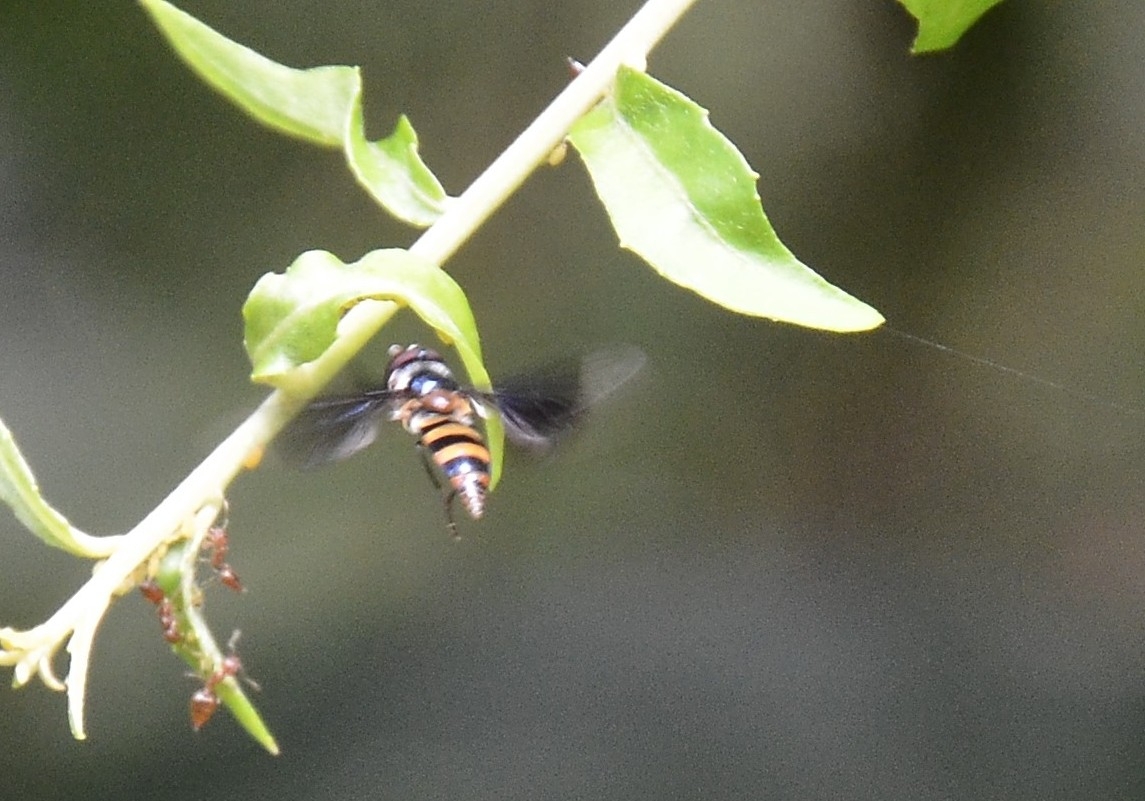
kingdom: Animalia
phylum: Arthropoda
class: Insecta
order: Diptera
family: Syrphidae
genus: Dideopsis
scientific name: Dideopsis aegrota
